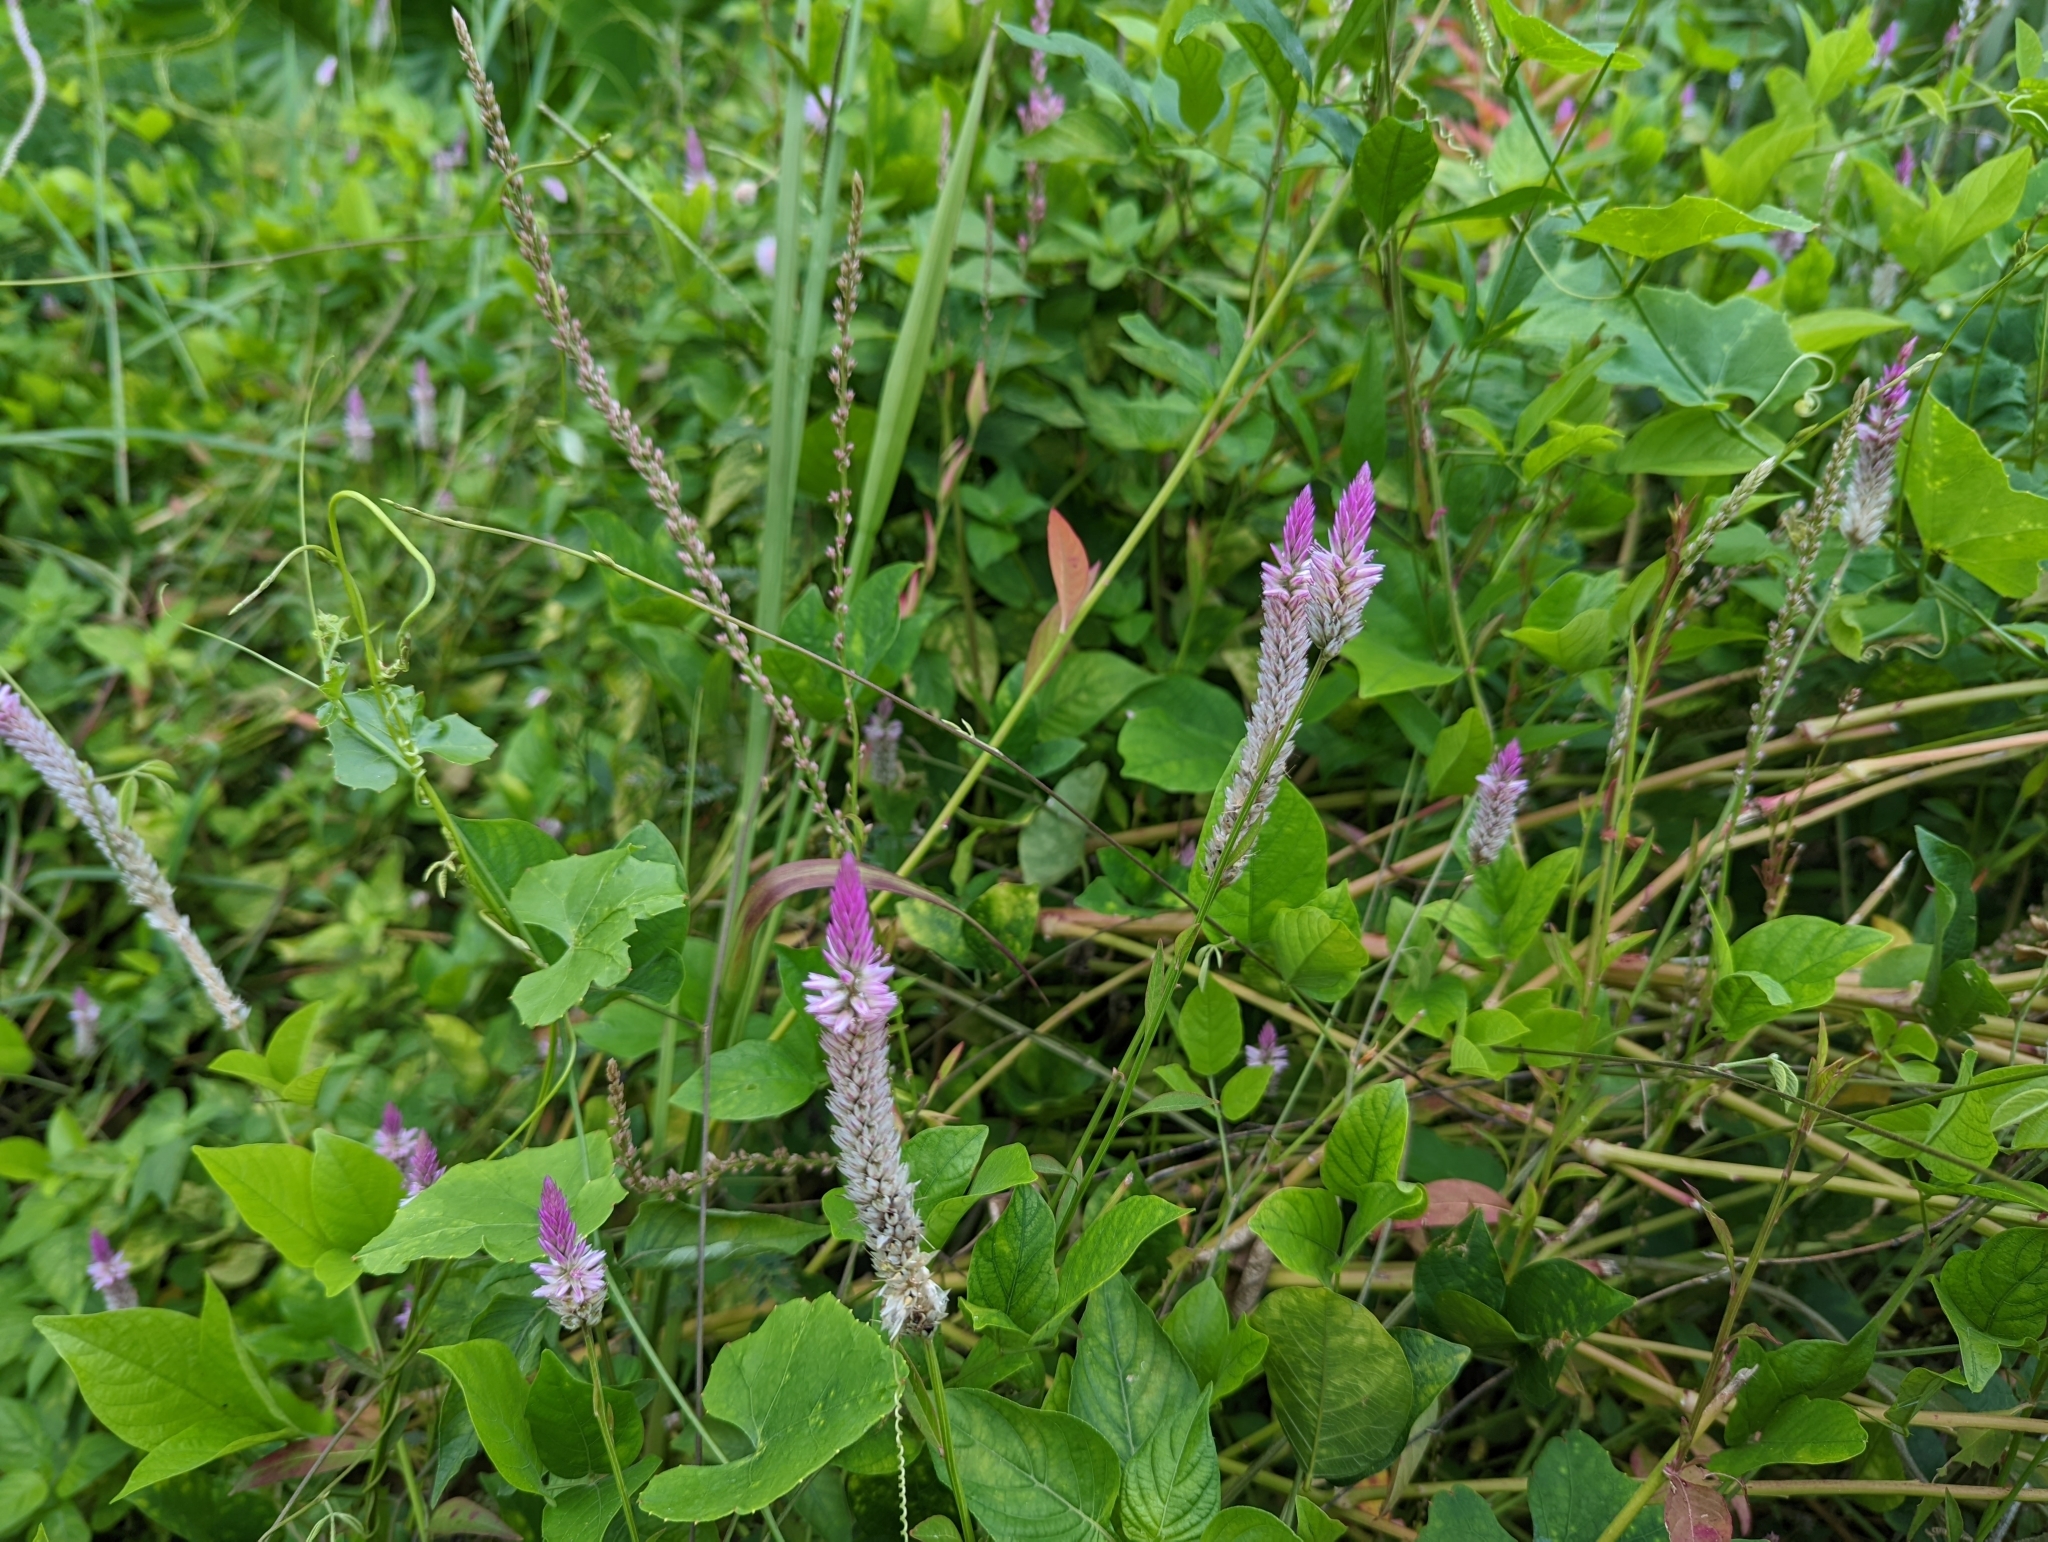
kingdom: Plantae
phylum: Tracheophyta
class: Magnoliopsida
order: Caryophyllales
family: Amaranthaceae
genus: Celosia
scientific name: Celosia argentea
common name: Feather cockscomb
